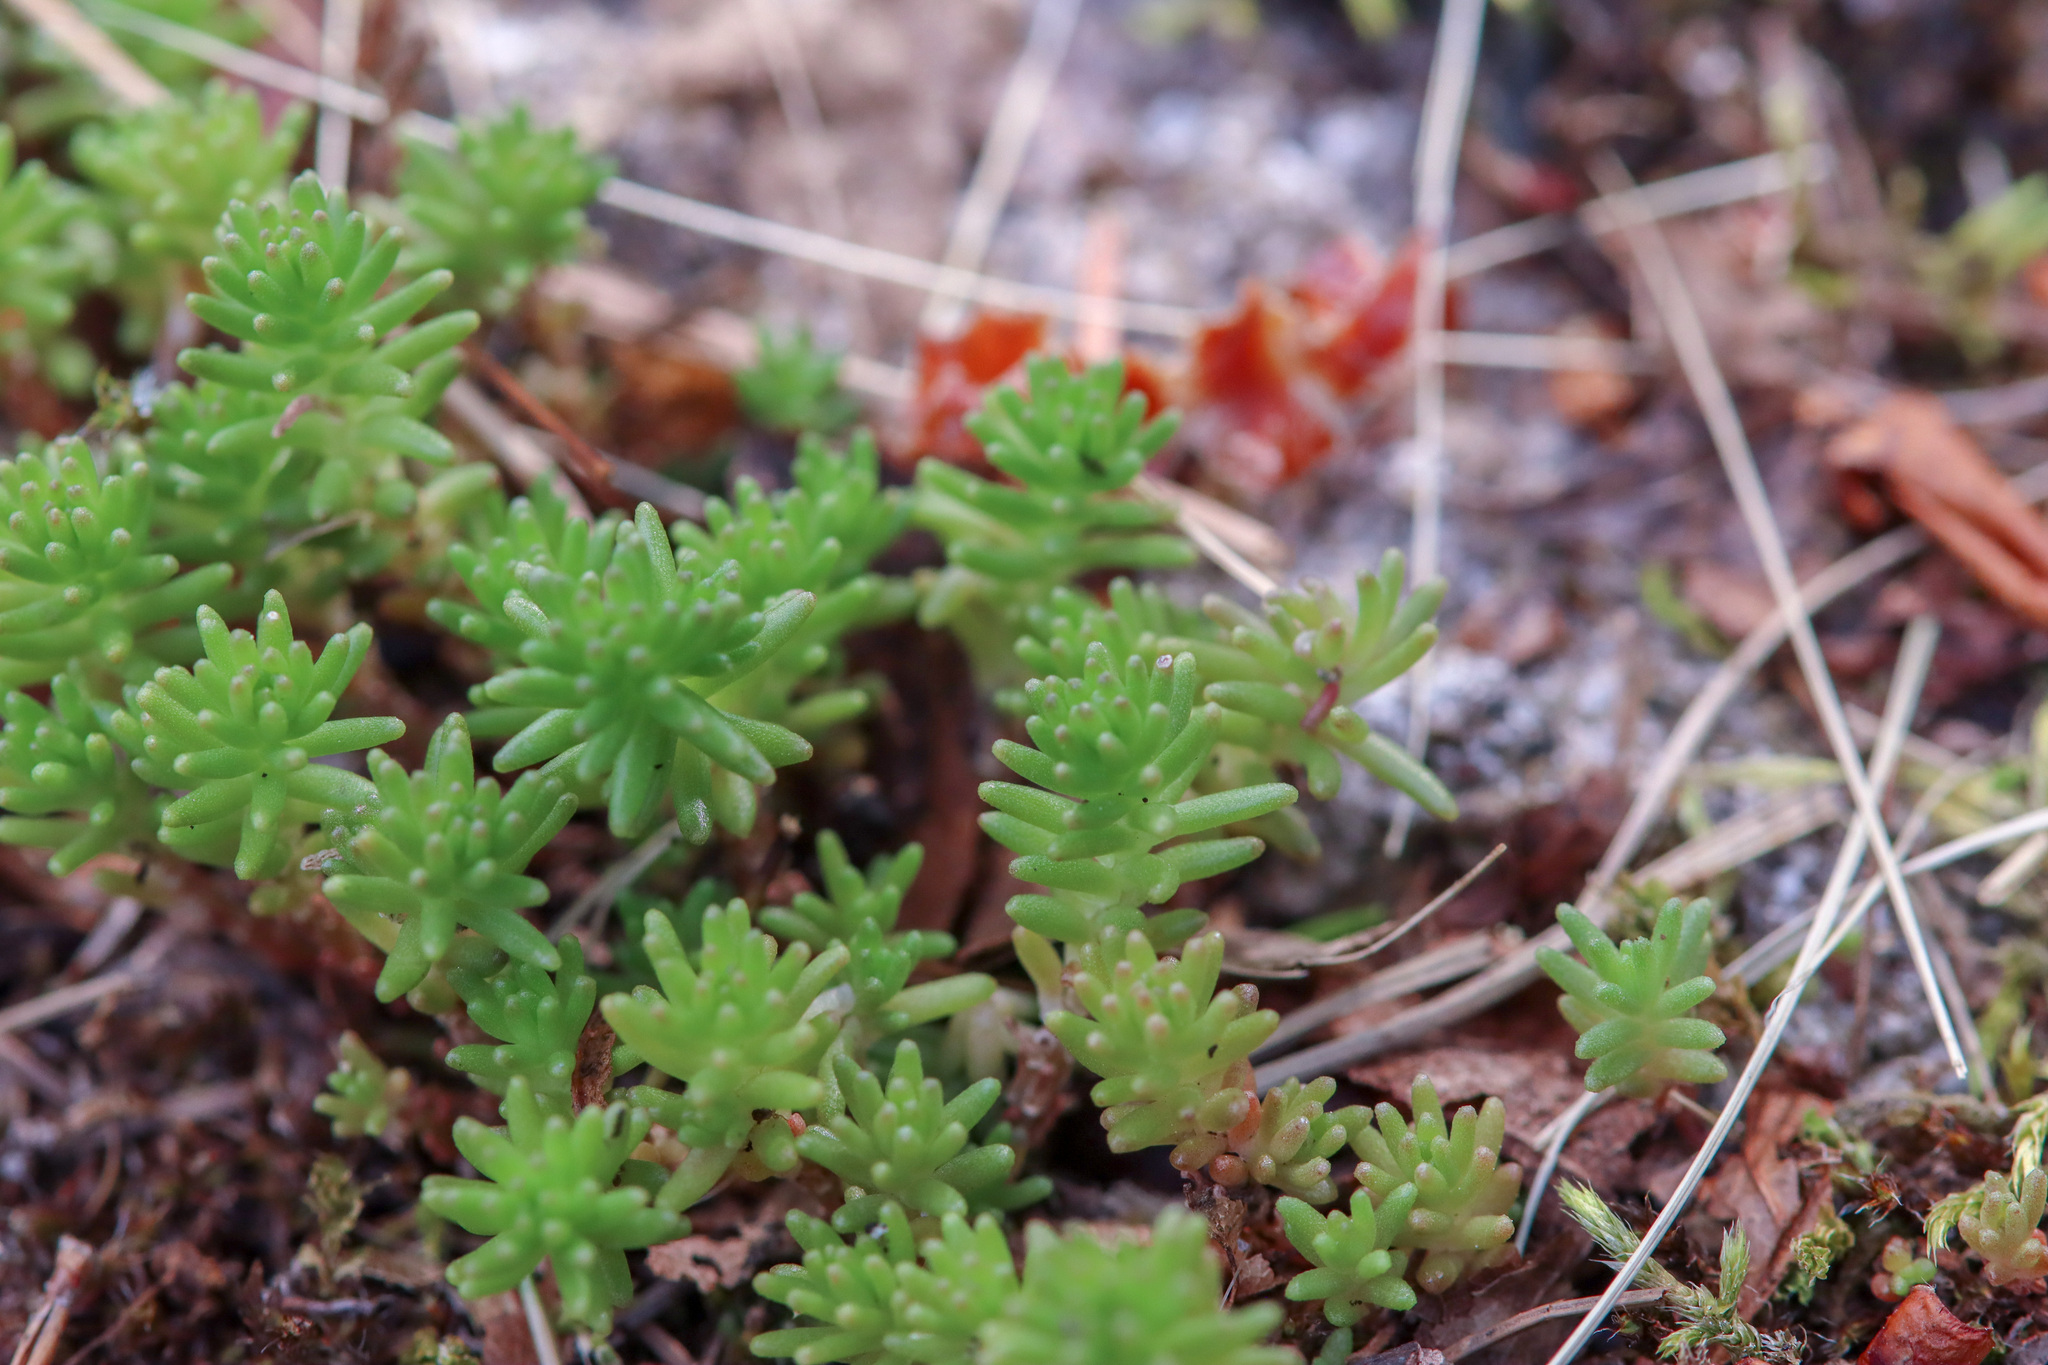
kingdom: Plantae
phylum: Tracheophyta
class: Magnoliopsida
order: Saxifragales
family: Crassulaceae
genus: Sedum
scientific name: Sedum sexangulare
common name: Tasteless stonecrop
